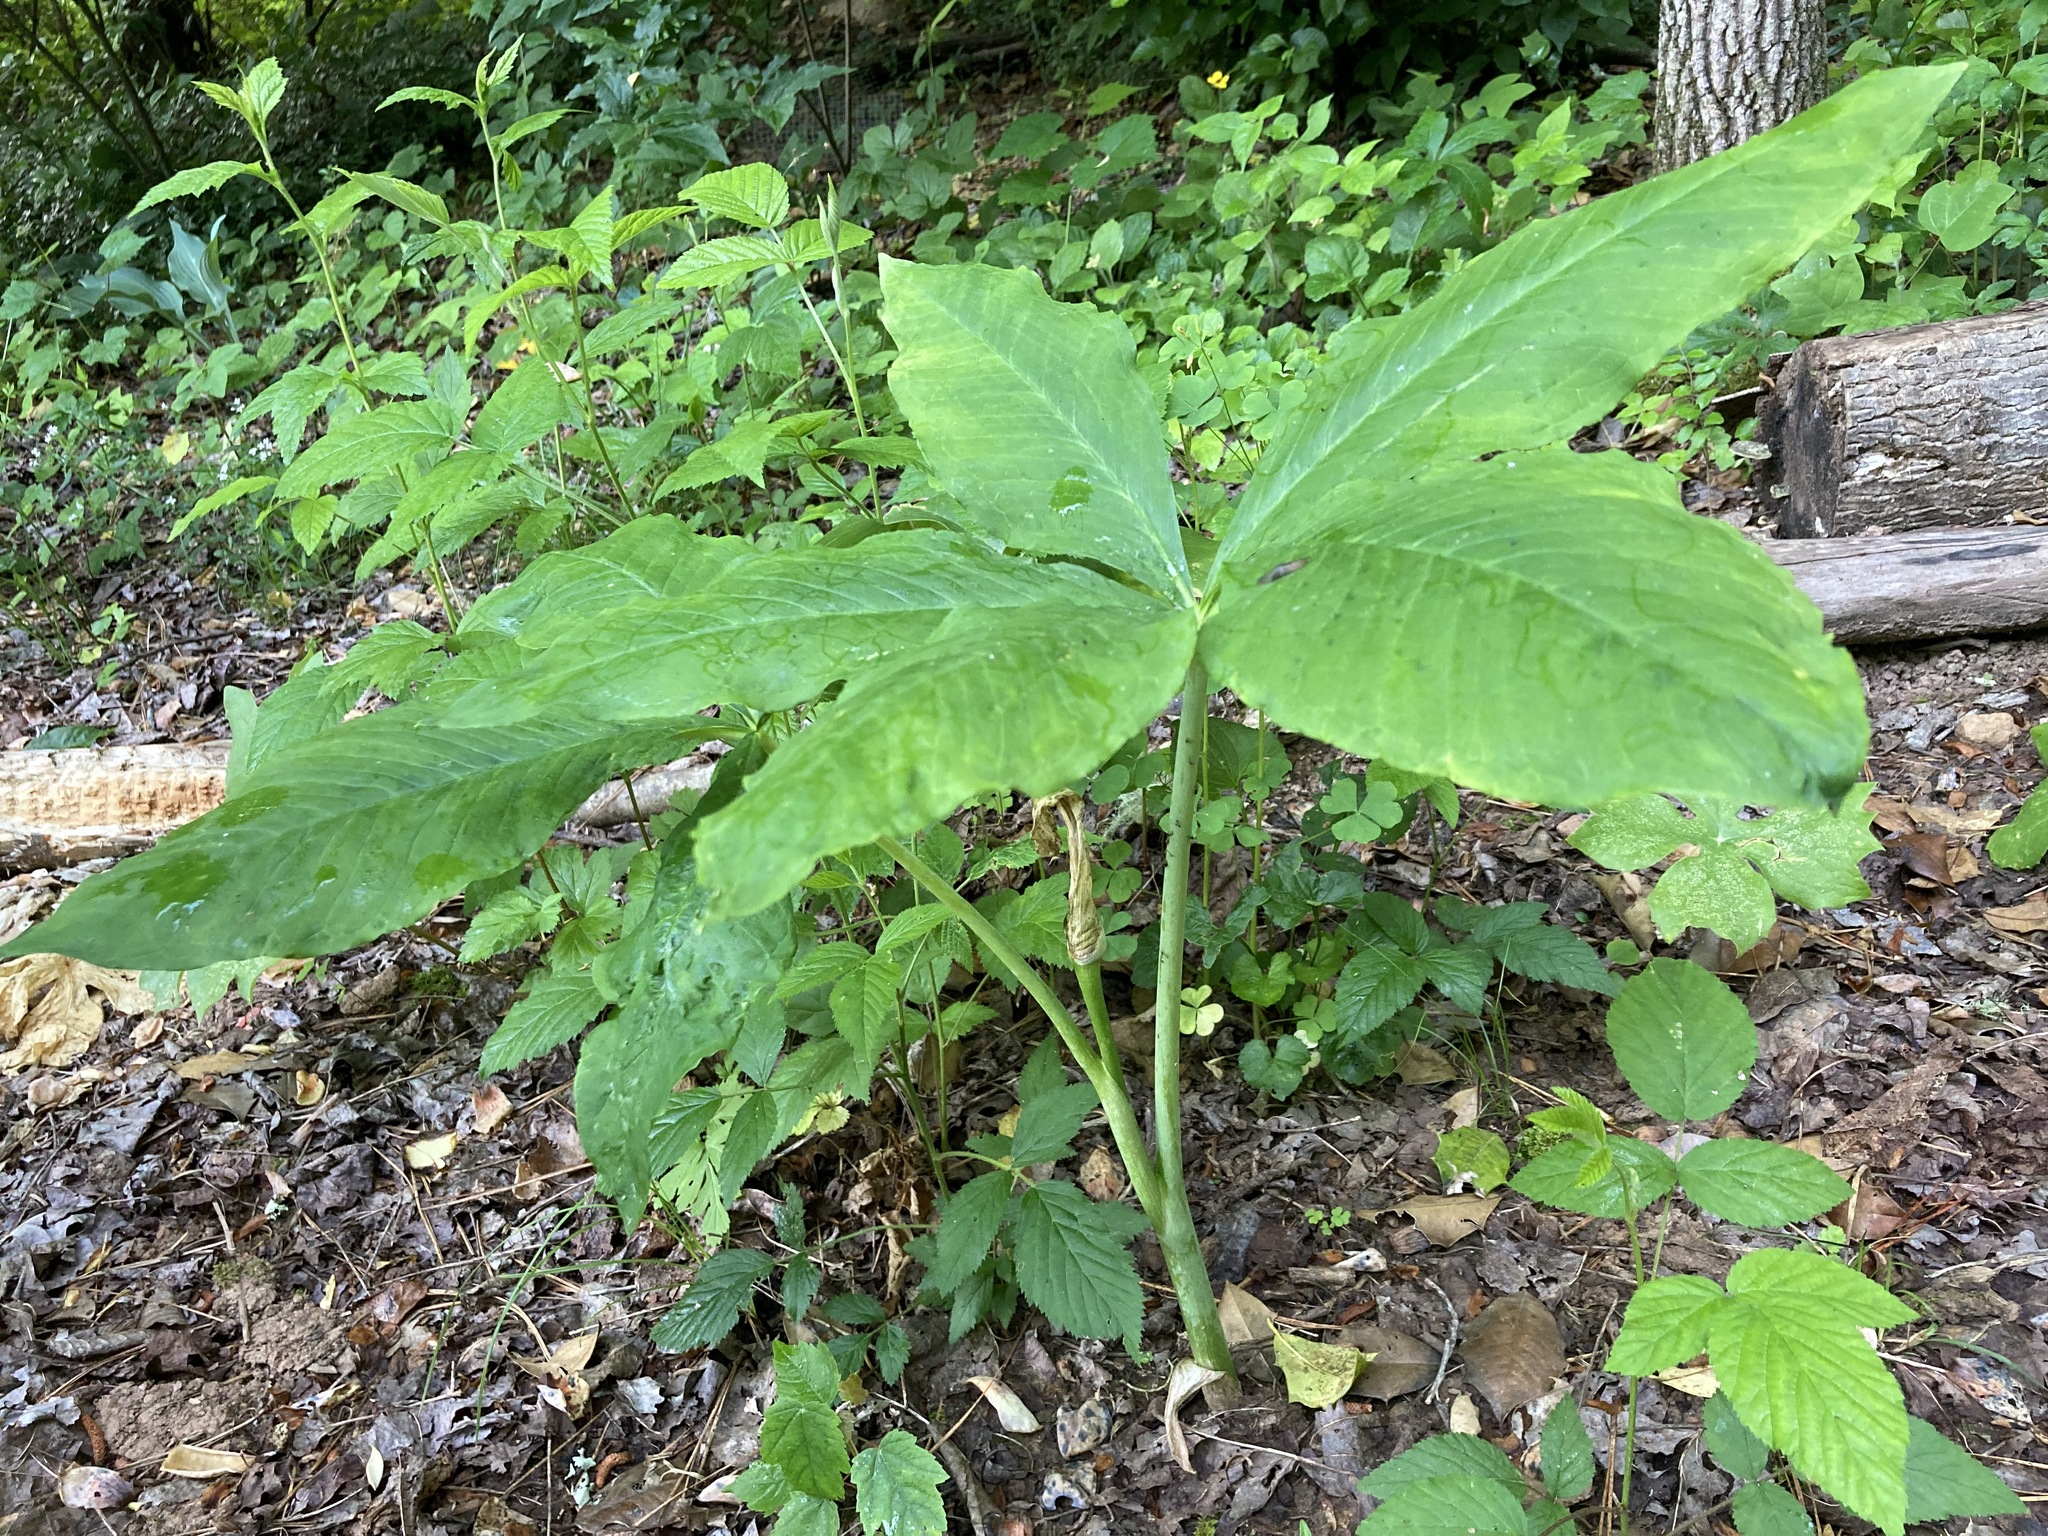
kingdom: Plantae
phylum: Tracheophyta
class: Liliopsida
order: Alismatales
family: Araceae
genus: Arisaema
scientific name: Arisaema quinatum
